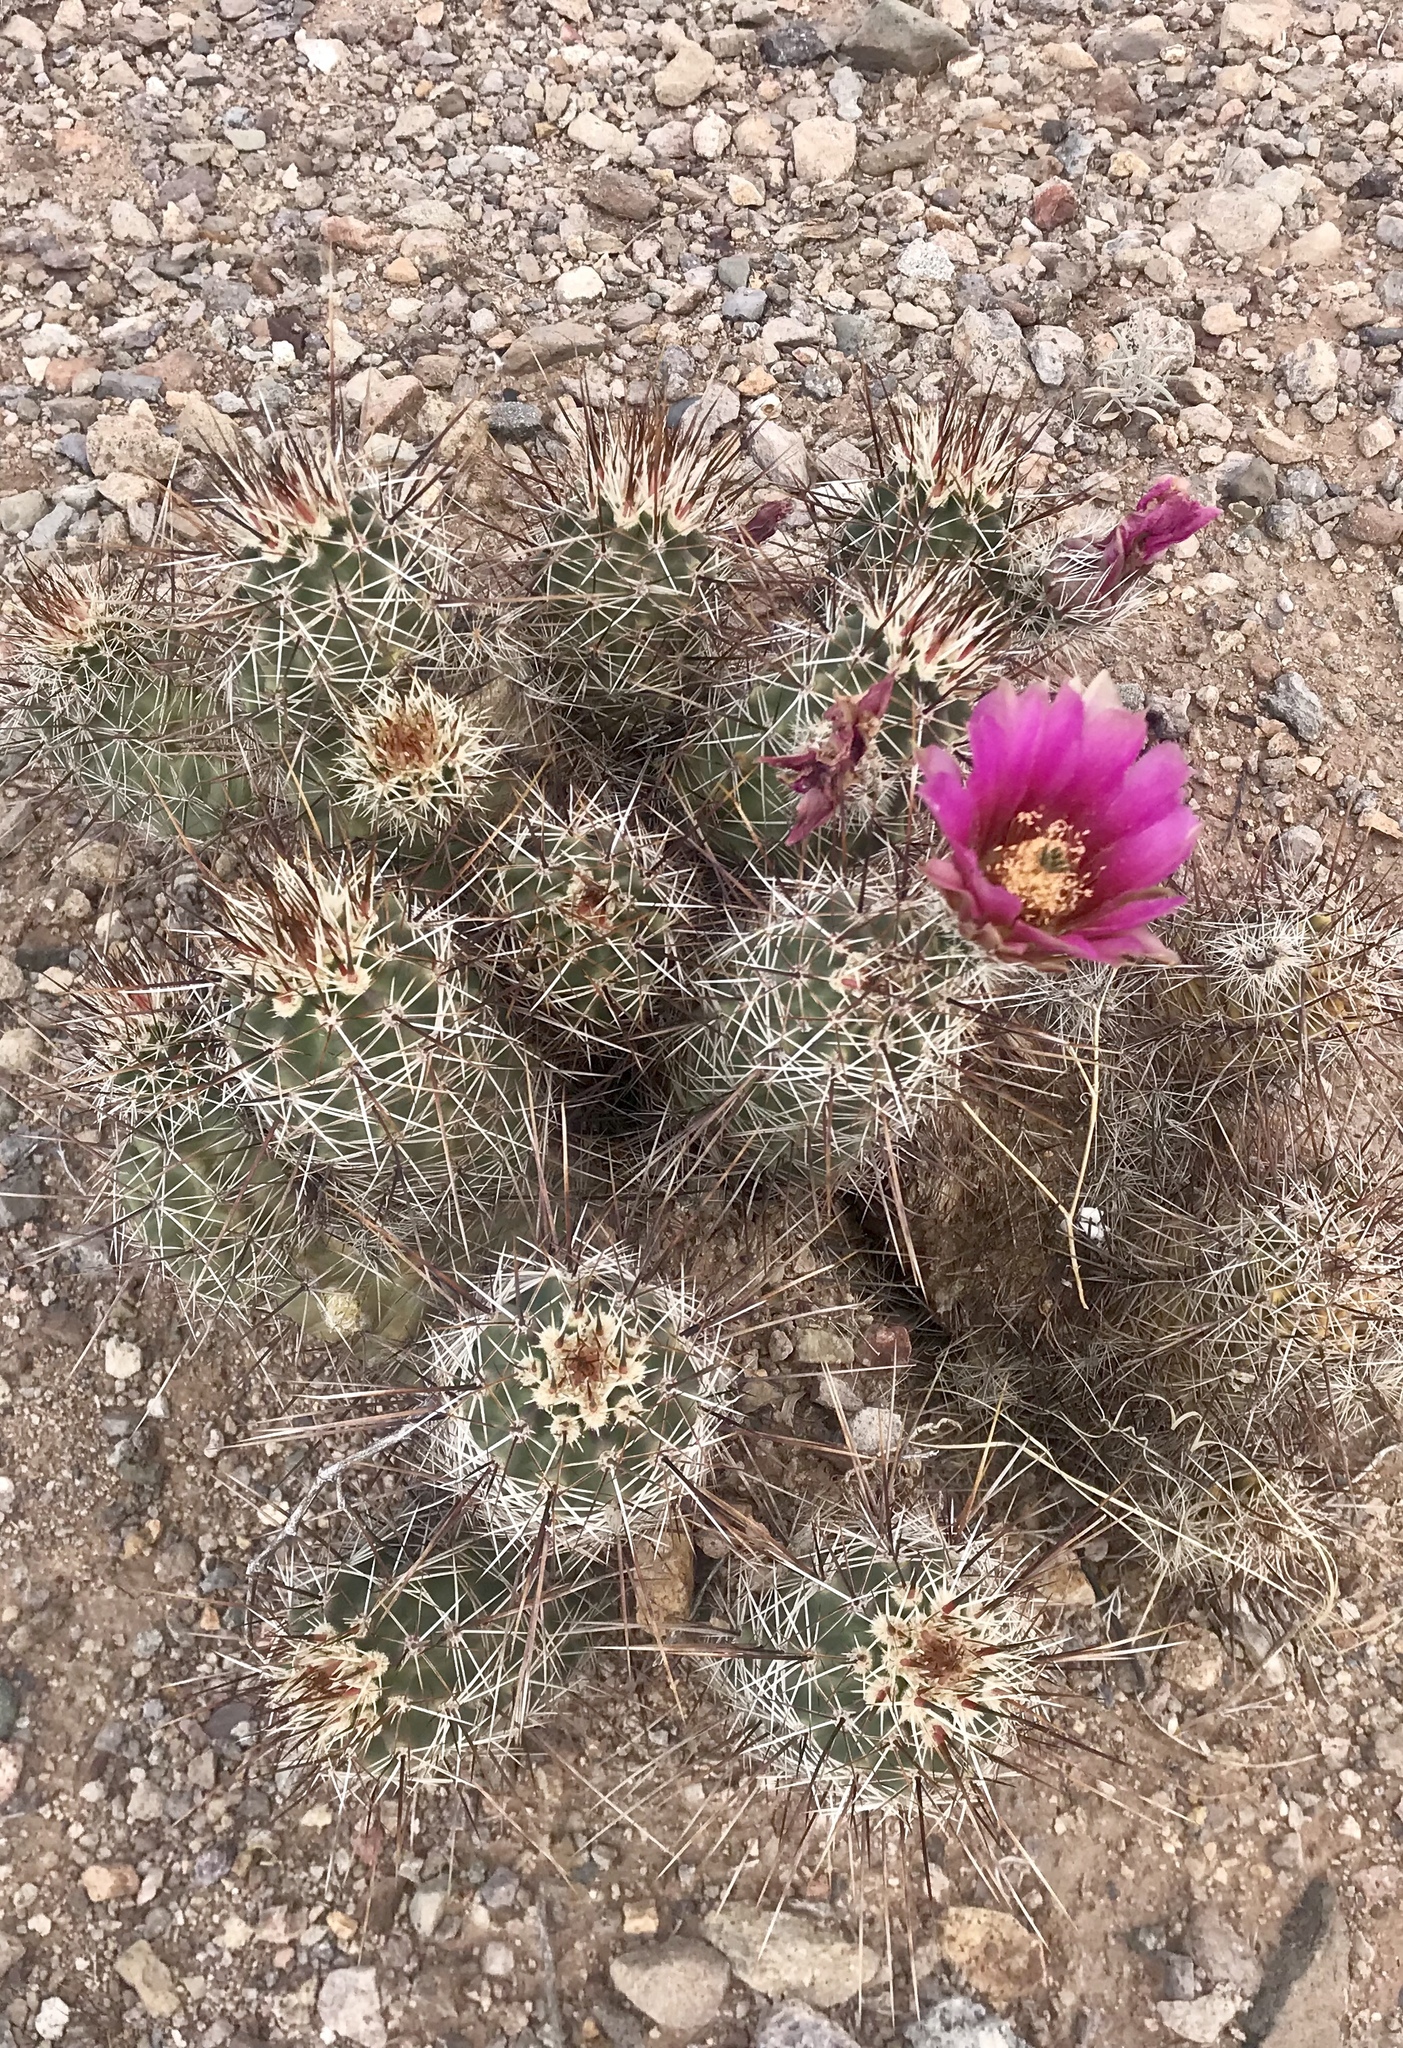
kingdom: Plantae
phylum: Tracheophyta
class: Magnoliopsida
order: Caryophyllales
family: Cactaceae
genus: Echinocereus
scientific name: Echinocereus fasciculatus
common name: Bundle hedgehog
